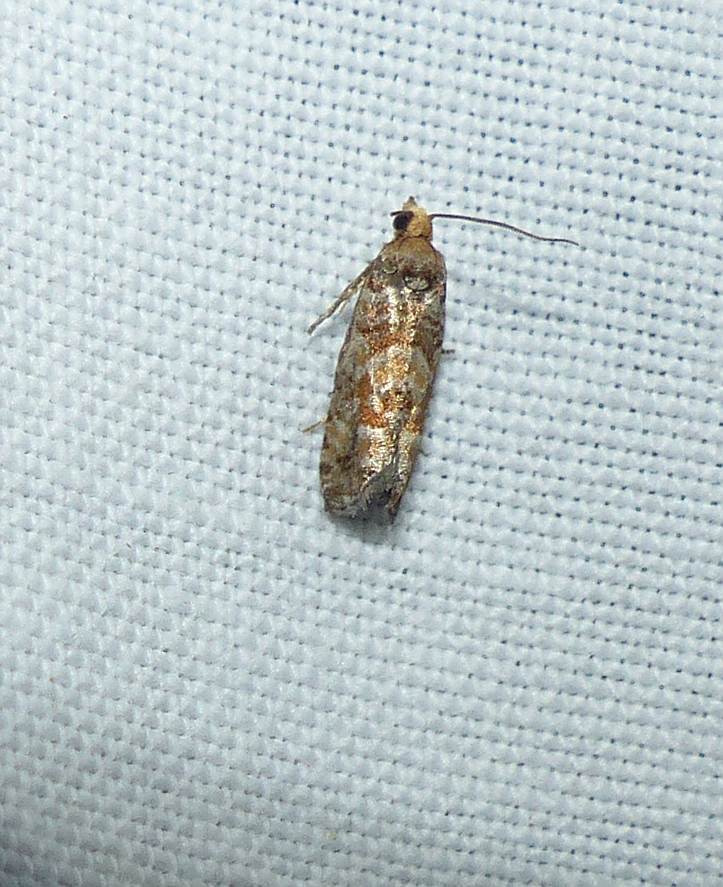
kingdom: Animalia
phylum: Arthropoda
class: Insecta
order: Lepidoptera
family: Tortricidae
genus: Eucopina
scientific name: Eucopina tocullionana
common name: White pinecone borer moth
